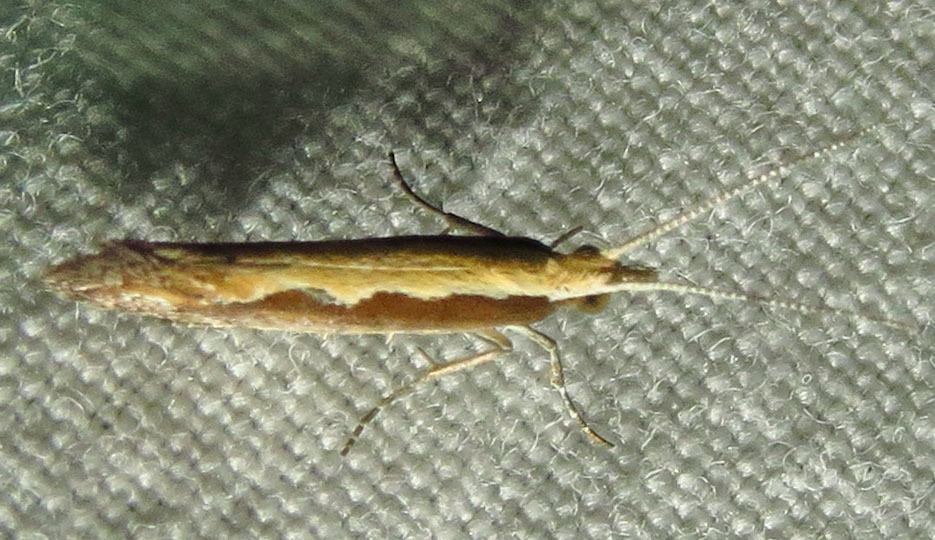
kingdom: Animalia
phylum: Arthropoda
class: Insecta
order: Lepidoptera
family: Plutellidae
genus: Plutella
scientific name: Plutella xylostella
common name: Diamond-back moth
